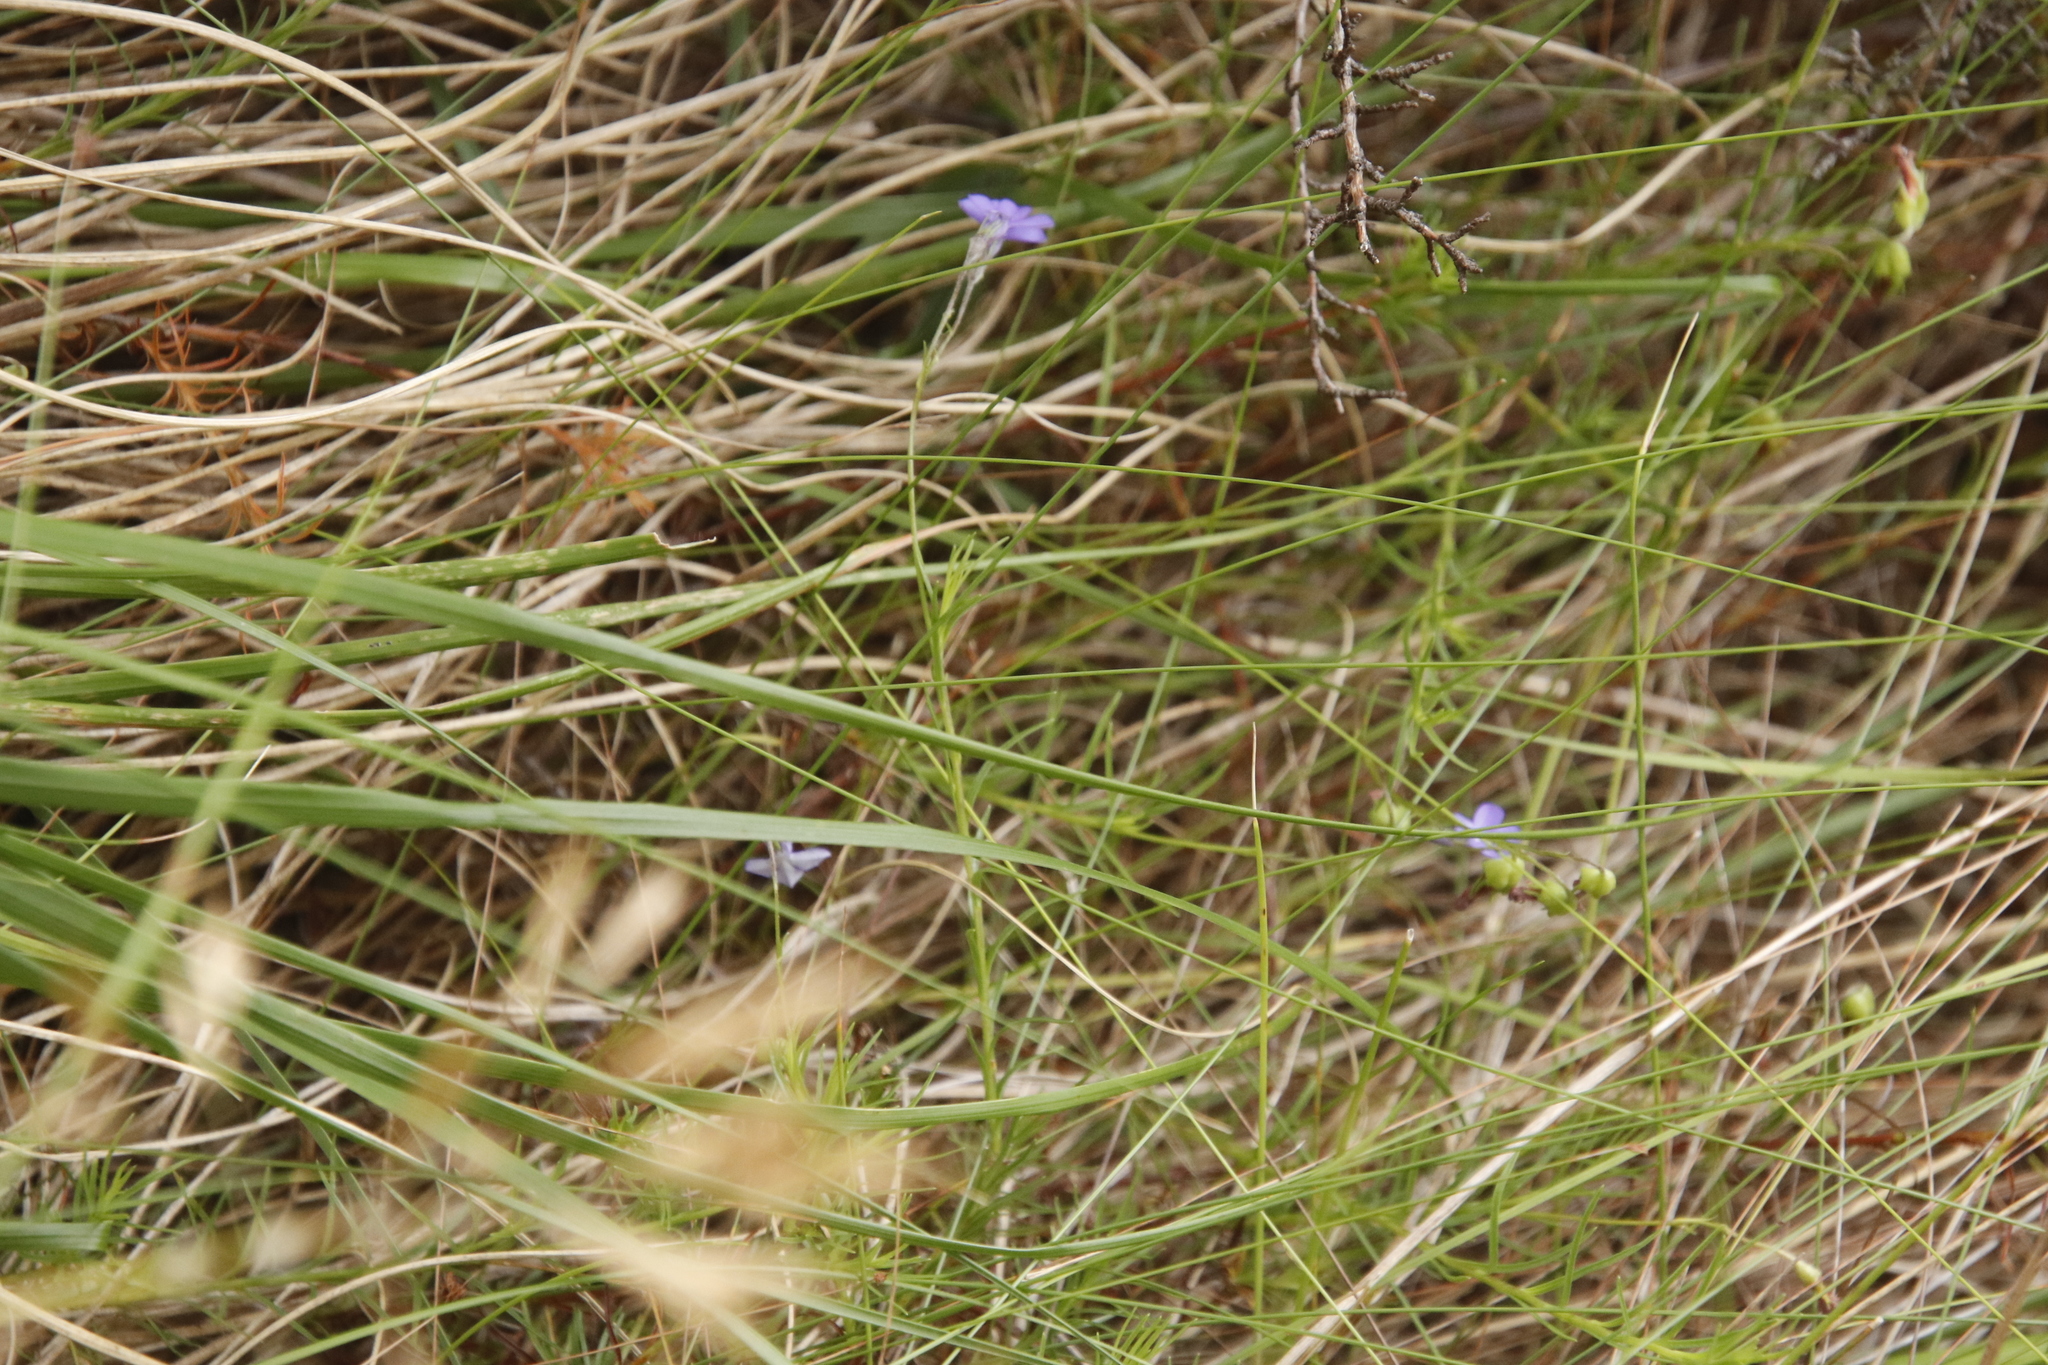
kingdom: Plantae
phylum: Tracheophyta
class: Magnoliopsida
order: Asterales
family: Campanulaceae
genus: Lobelia
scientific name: Lobelia pinifolia
